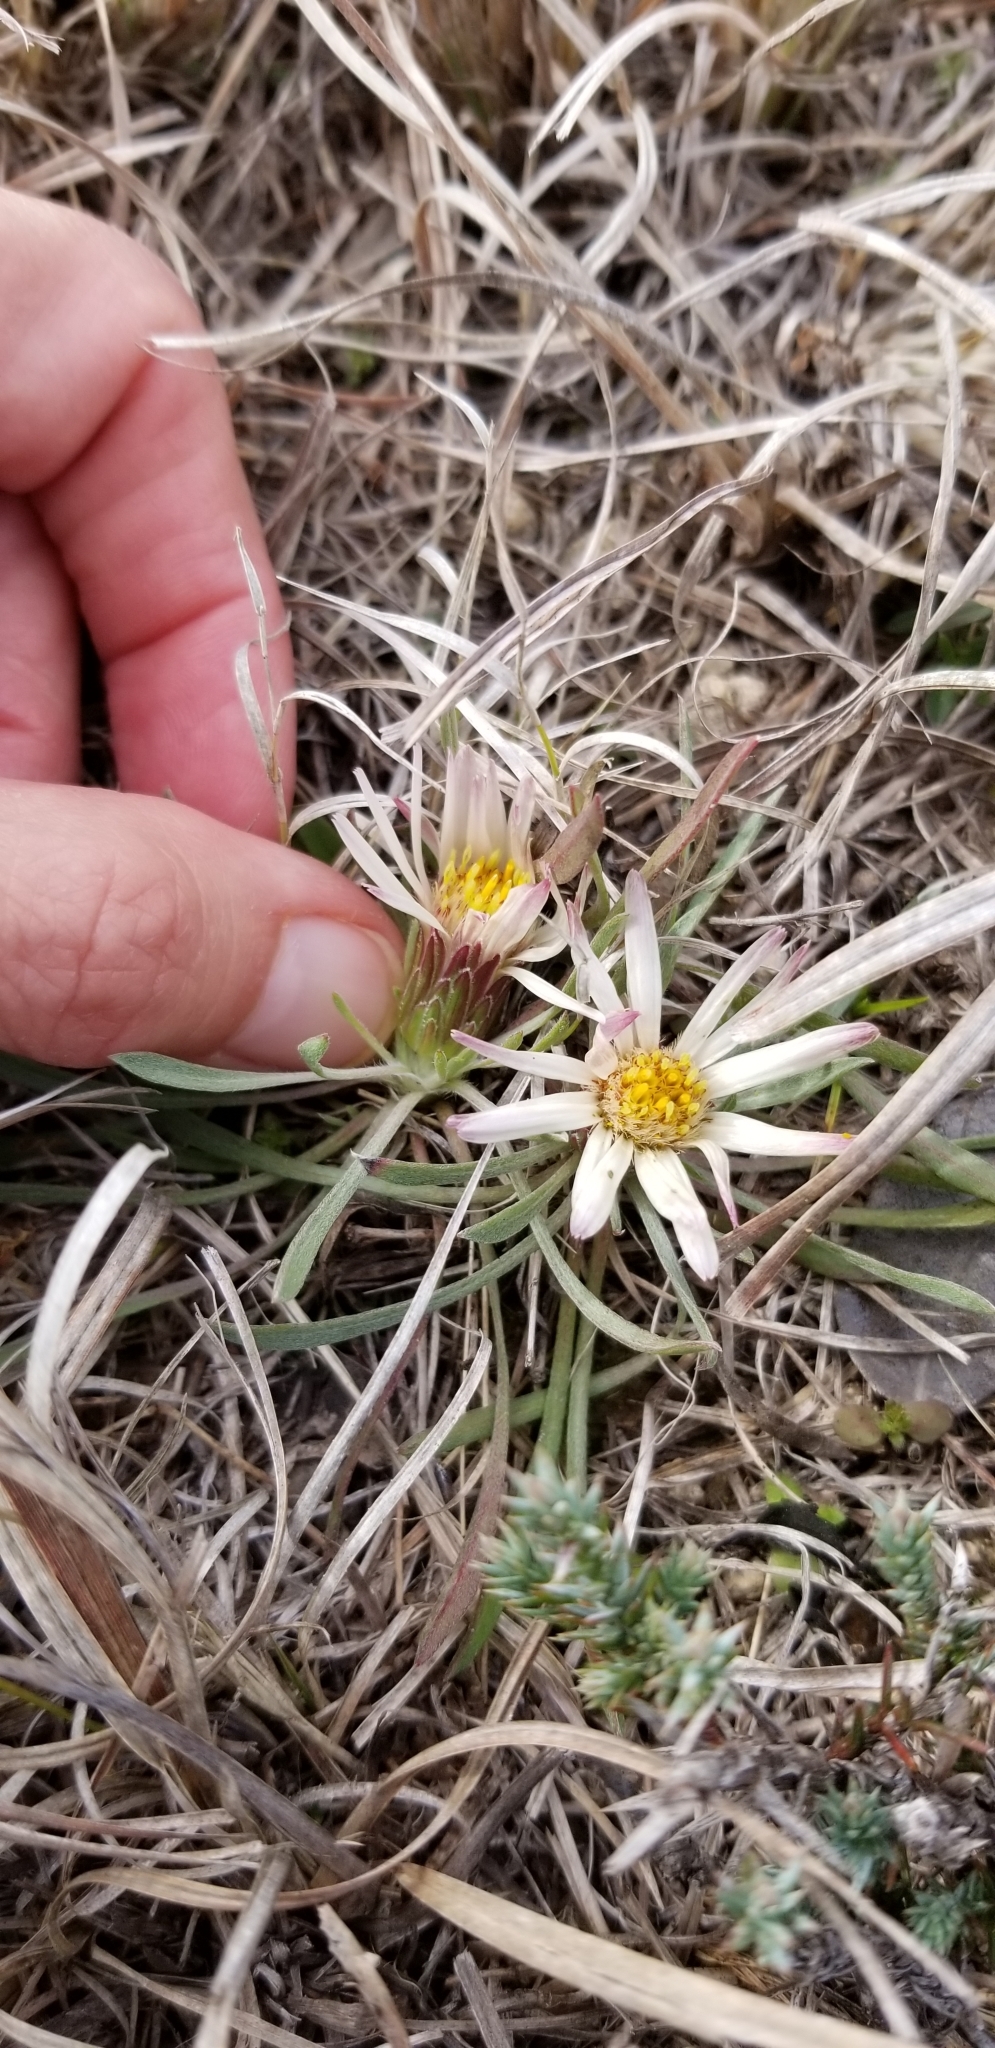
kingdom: Plantae
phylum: Tracheophyta
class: Magnoliopsida
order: Asterales
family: Asteraceae
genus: Townsendia
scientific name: Townsendia exscapa
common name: Dwarf townsendia
